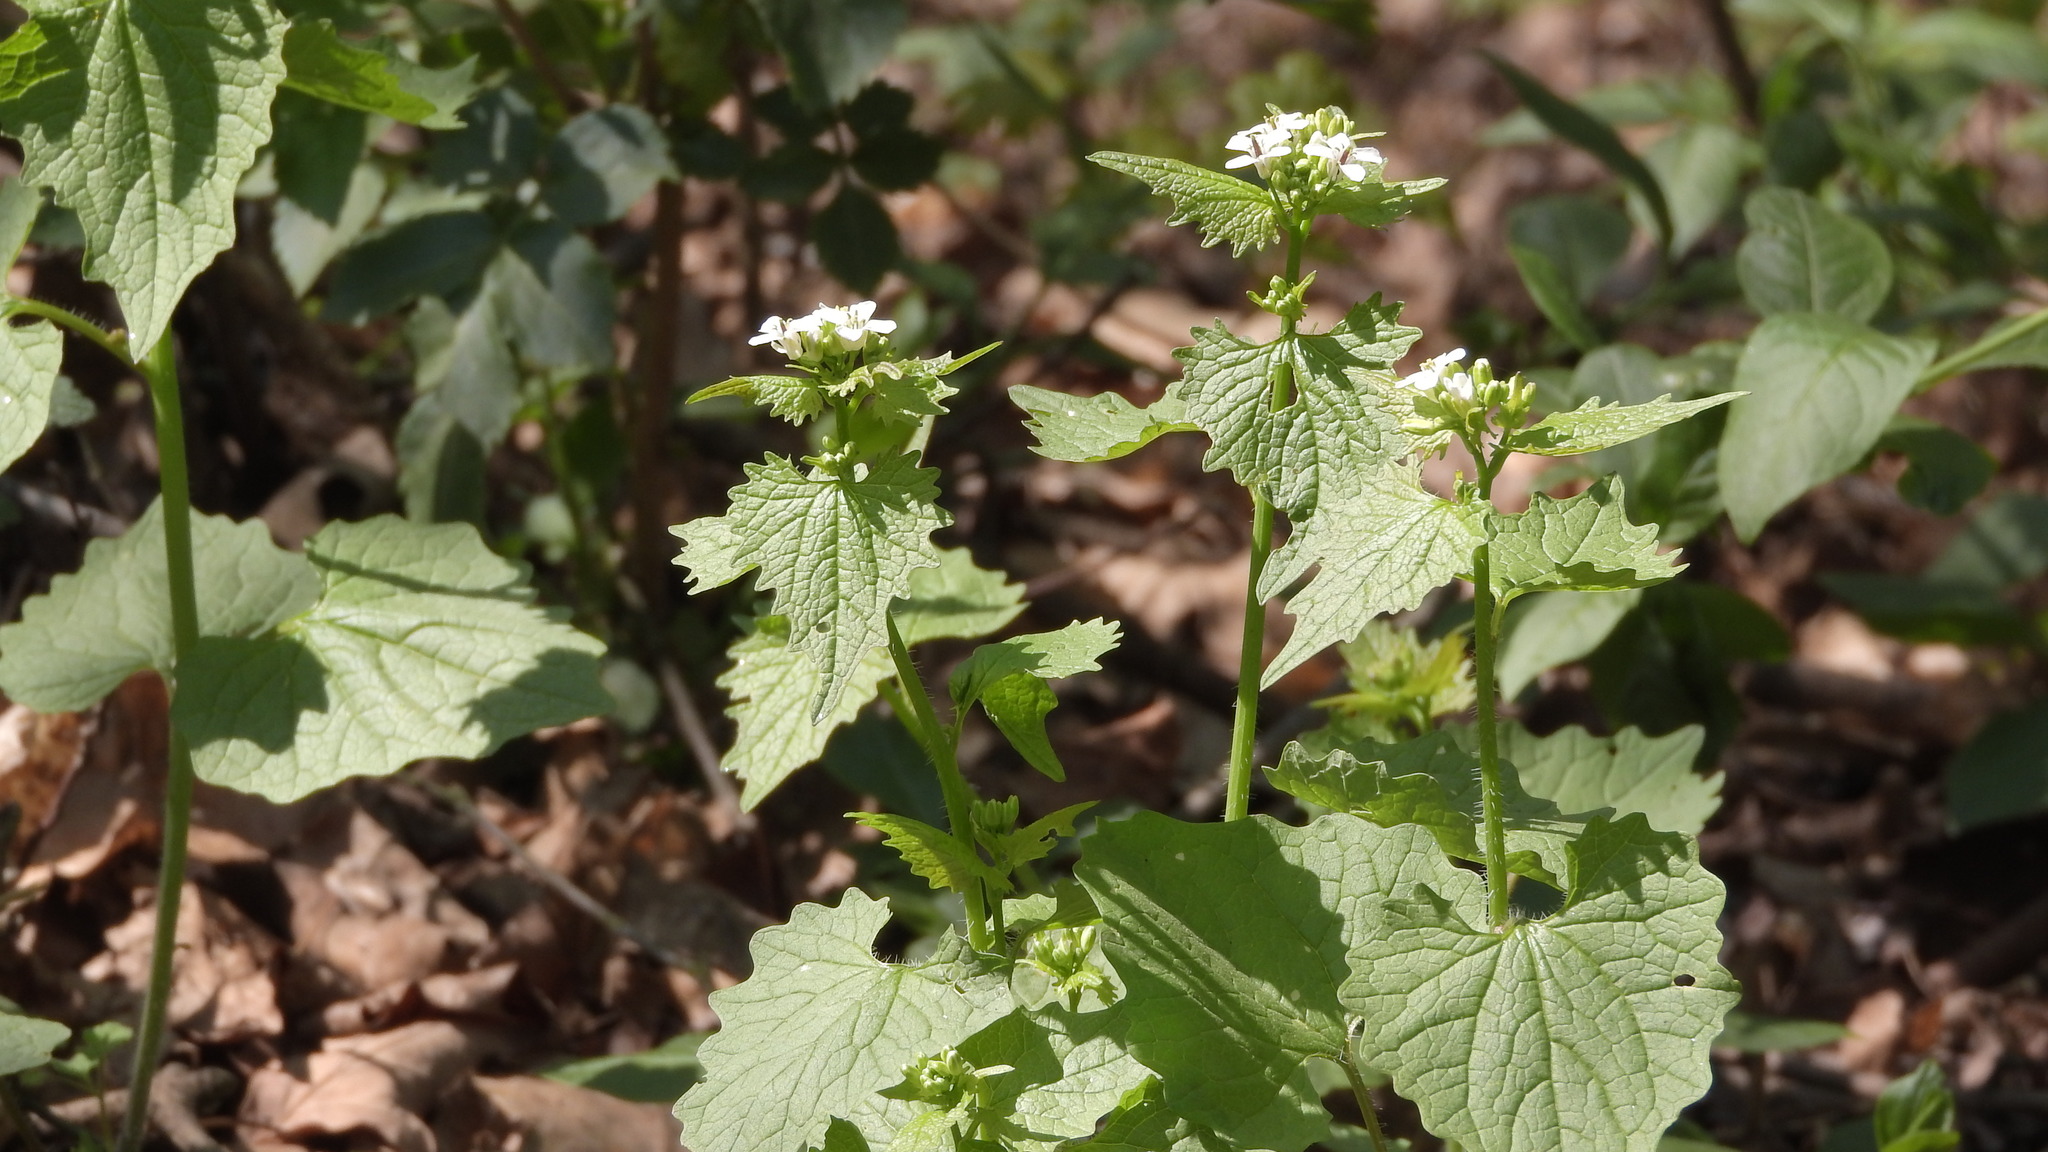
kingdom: Plantae
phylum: Tracheophyta
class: Magnoliopsida
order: Brassicales
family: Brassicaceae
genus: Alliaria
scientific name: Alliaria petiolata
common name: Garlic mustard
